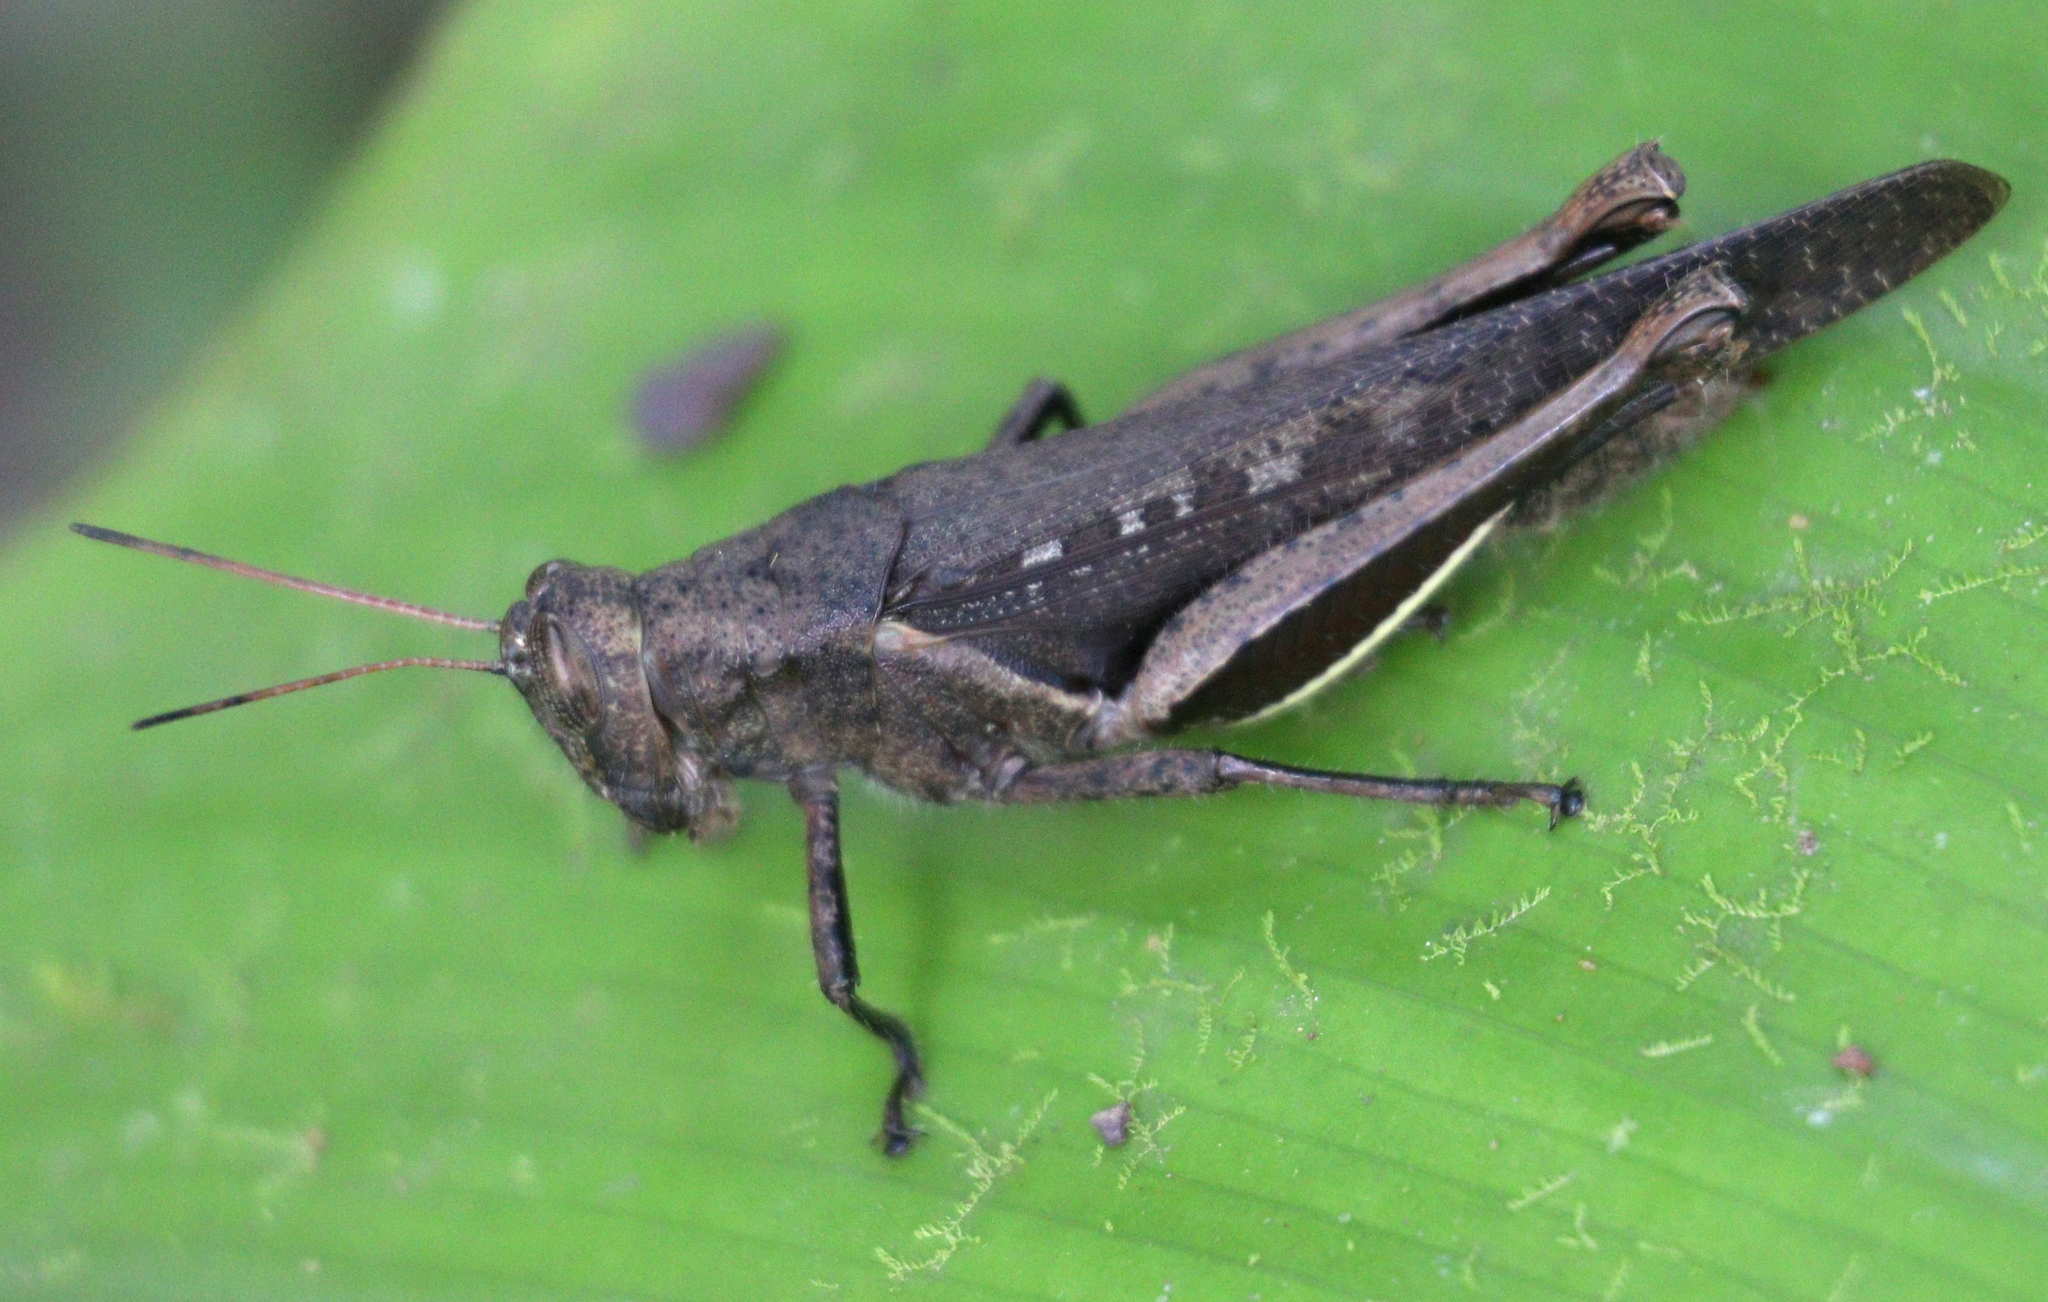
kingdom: Animalia
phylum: Arthropoda
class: Insecta
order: Orthoptera
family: Acrididae
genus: Abracris
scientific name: Abracris flavolineata
